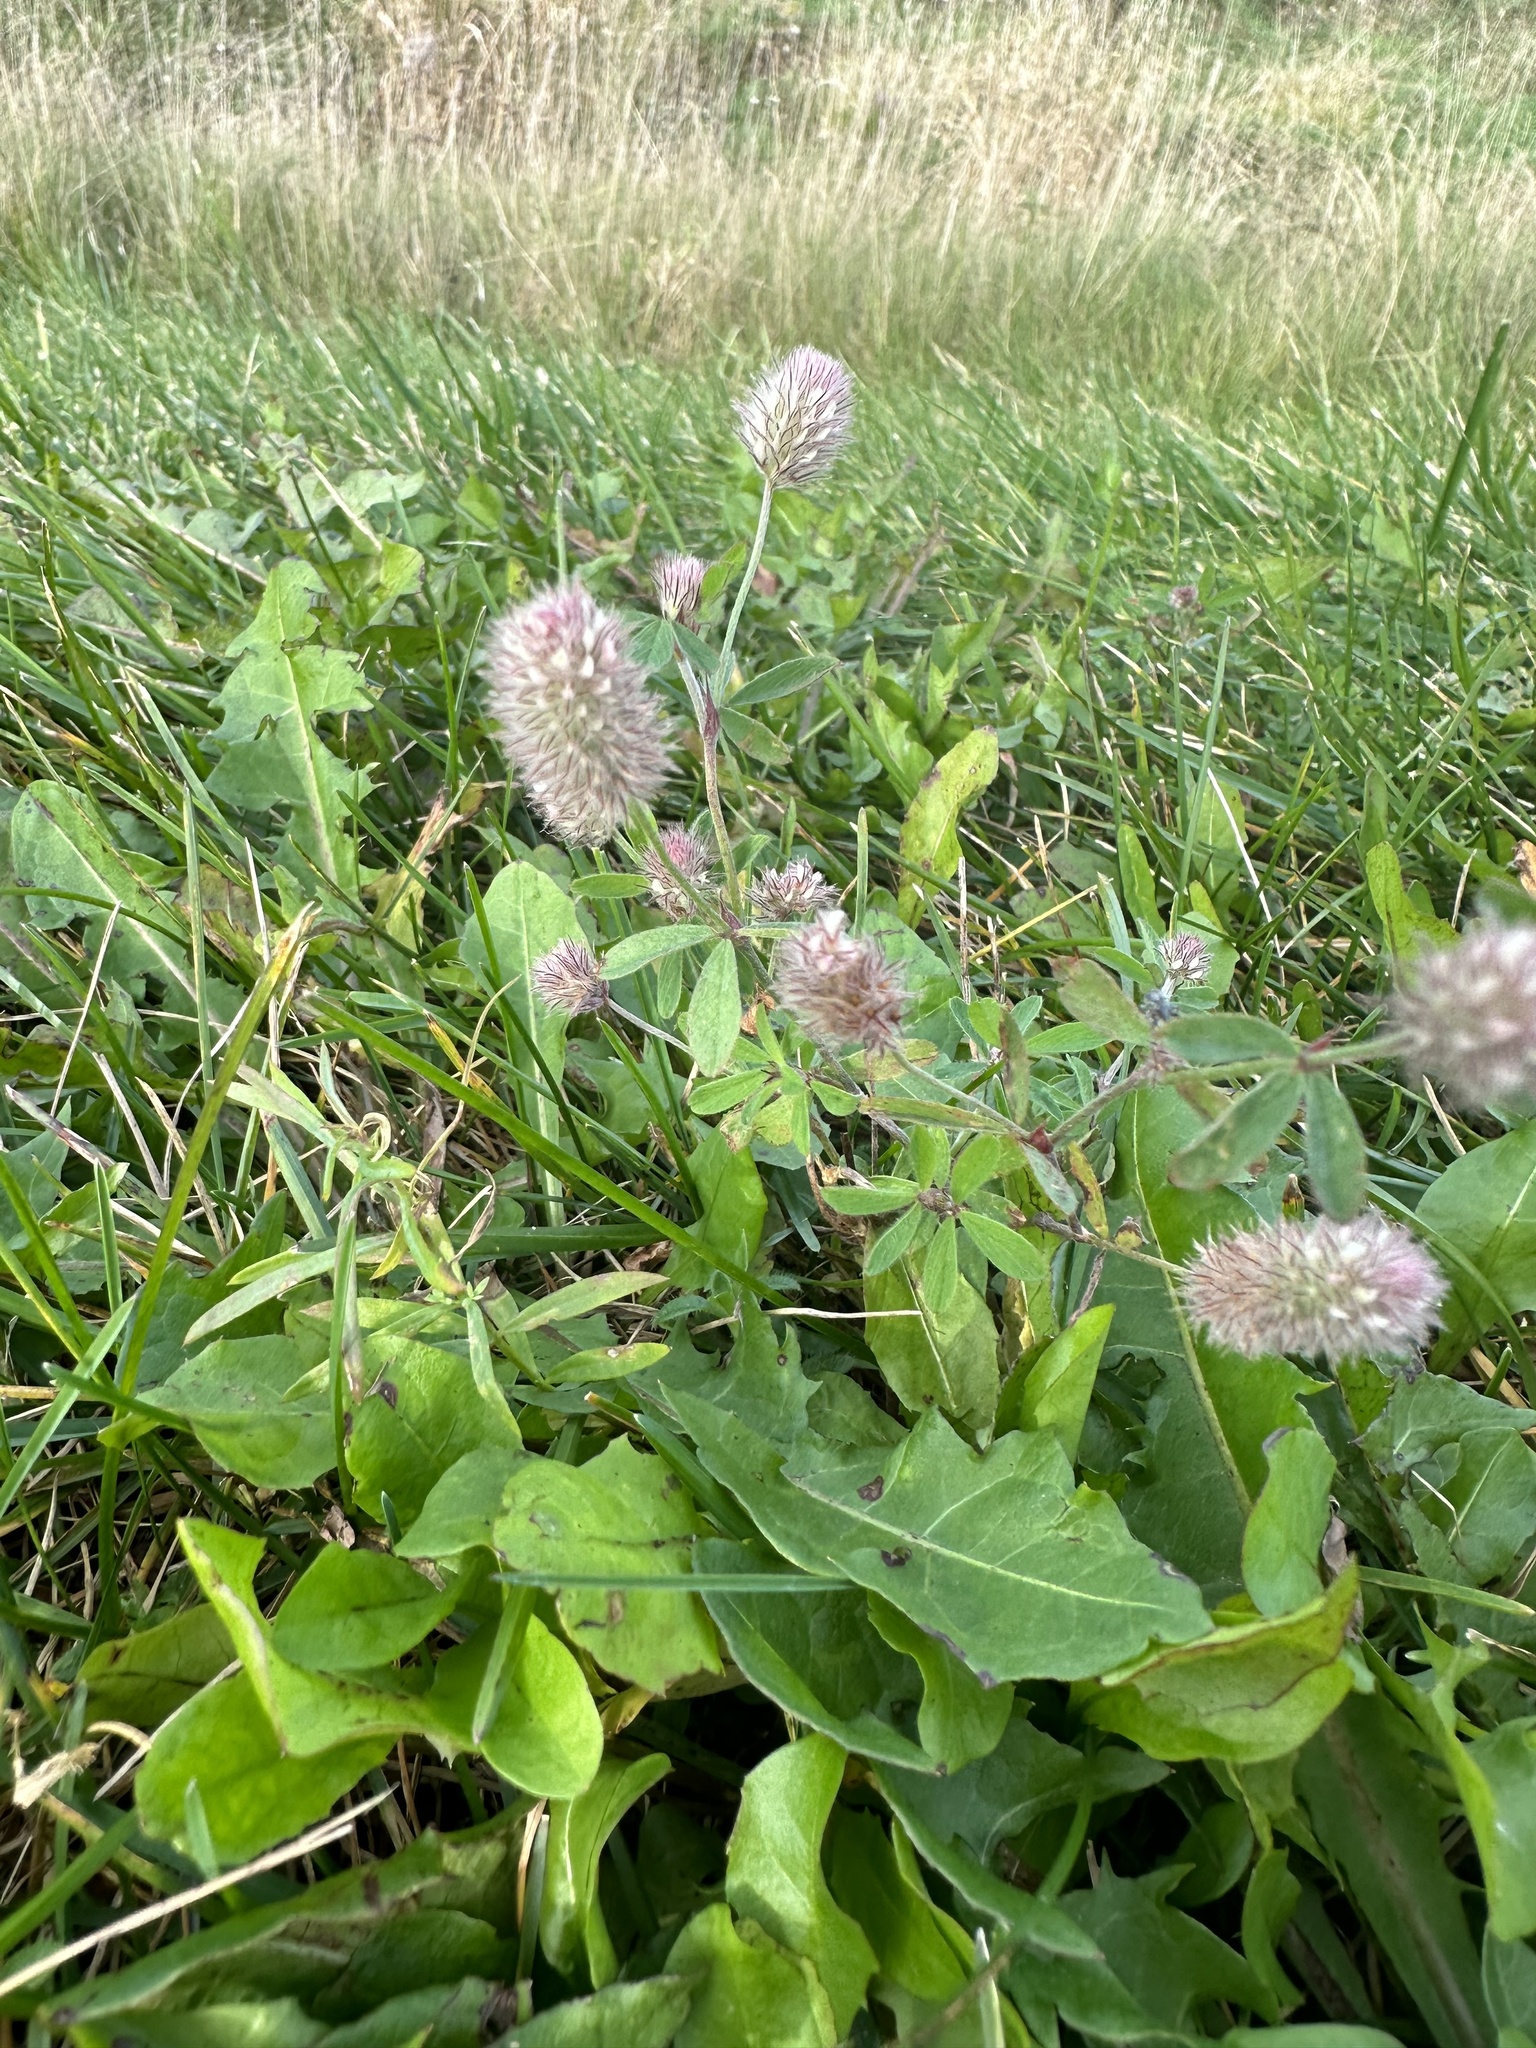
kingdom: Plantae
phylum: Tracheophyta
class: Magnoliopsida
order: Fabales
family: Fabaceae
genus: Trifolium
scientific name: Trifolium arvense
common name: Hare's-foot clover
